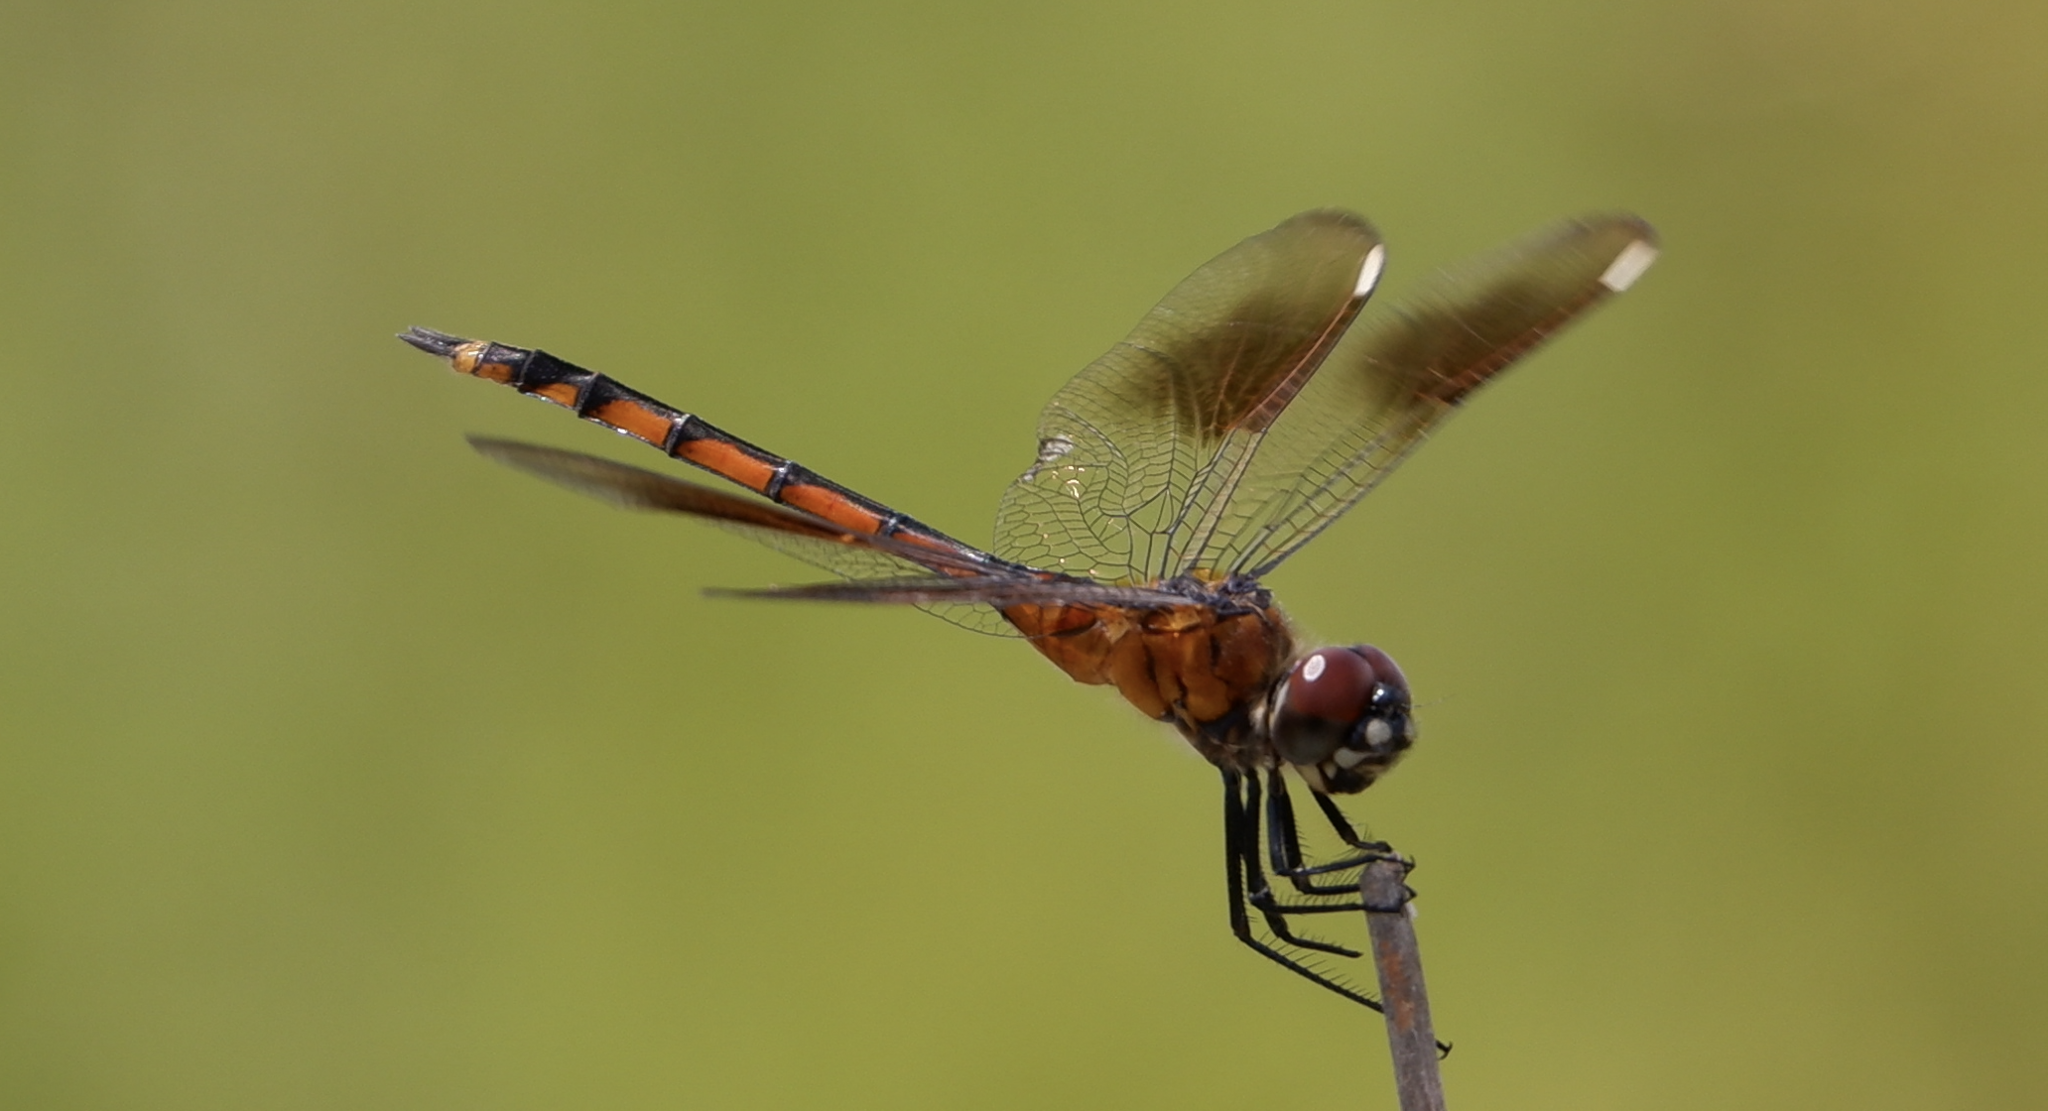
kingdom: Animalia
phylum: Arthropoda
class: Insecta
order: Odonata
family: Libellulidae
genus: Brachymesia
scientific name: Brachymesia gravida
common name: Four-spotted pennant
